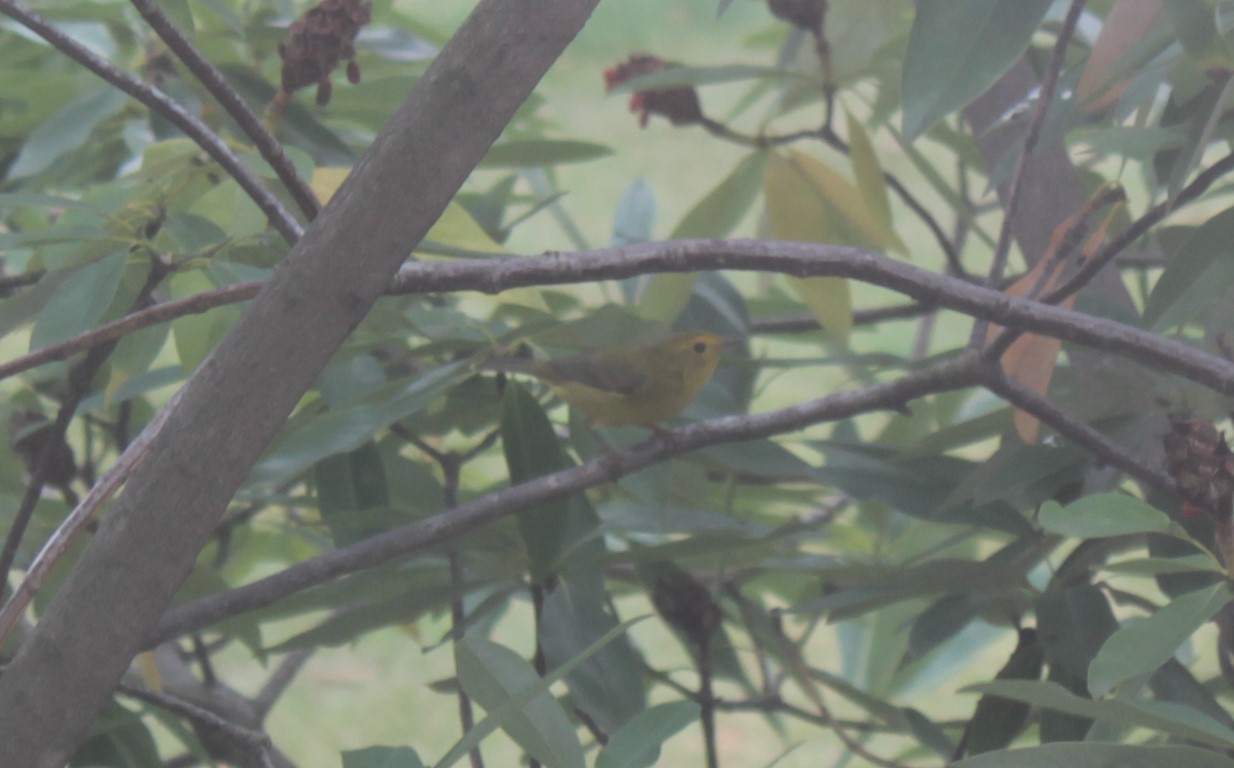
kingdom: Animalia
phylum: Chordata
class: Aves
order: Passeriformes
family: Parulidae
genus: Cardellina
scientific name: Cardellina pusilla
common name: Wilson's warbler
